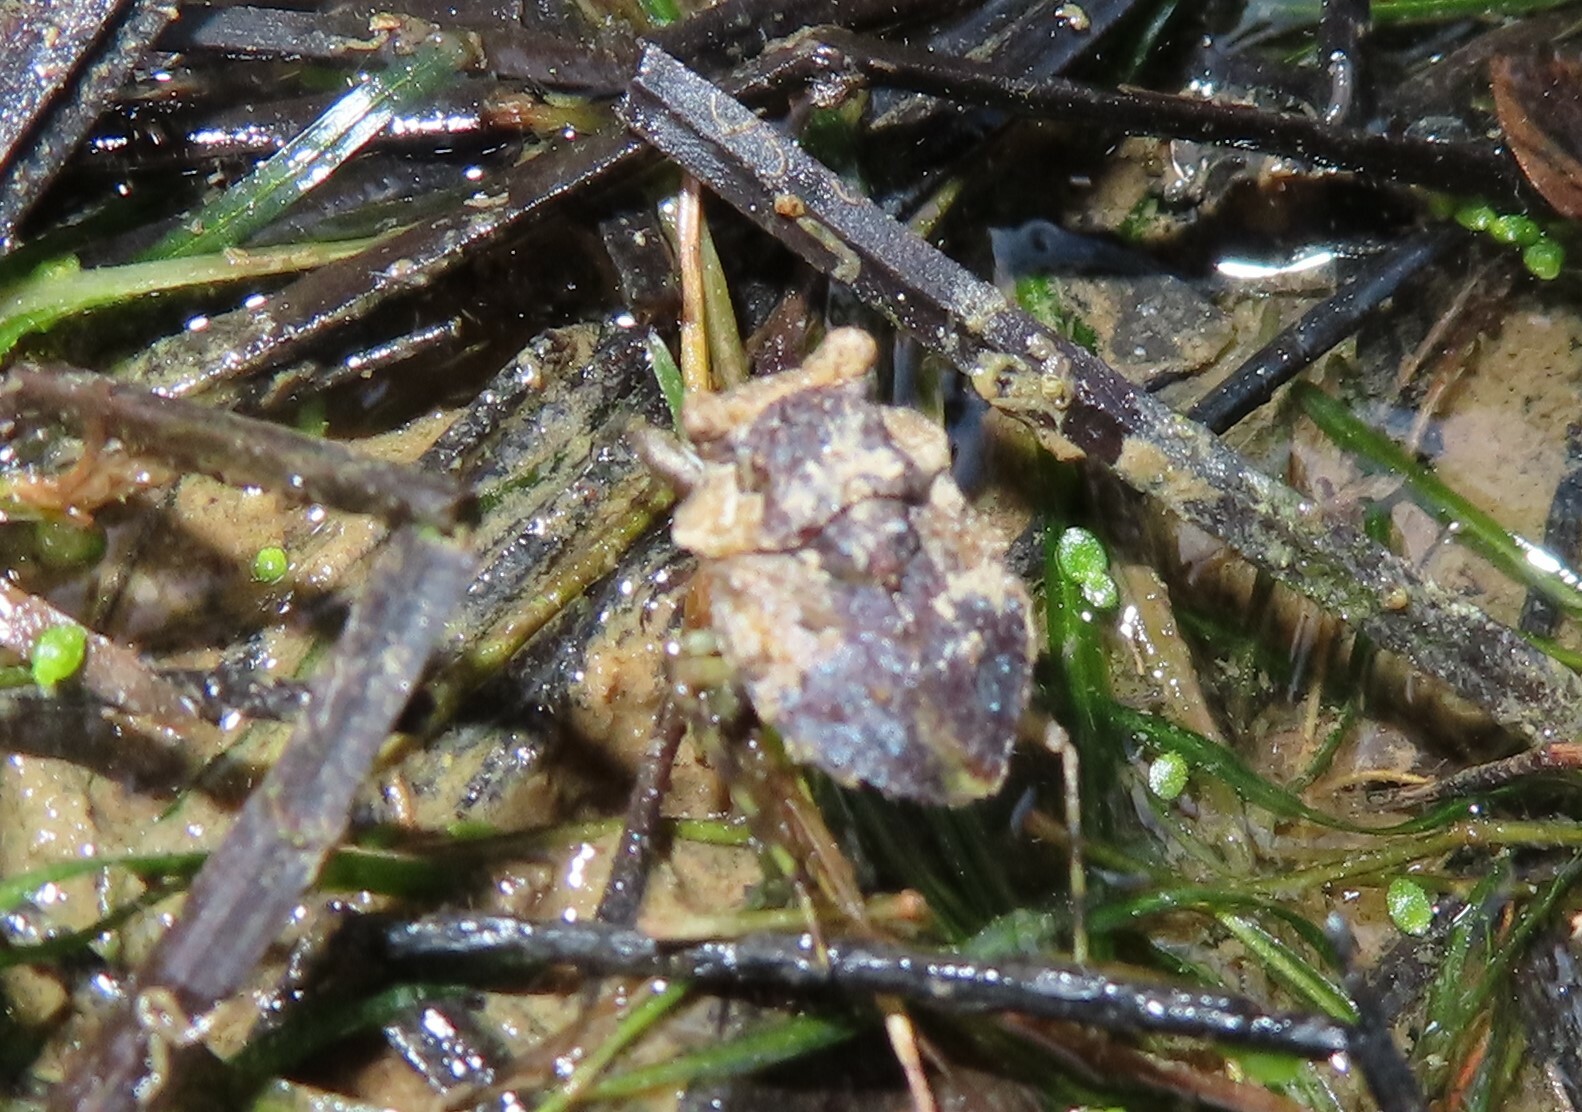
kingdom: Animalia
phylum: Arthropoda
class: Insecta
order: Hemiptera
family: Gelastocoridae
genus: Gelastocoris
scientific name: Gelastocoris oculatus
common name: Toad bug
